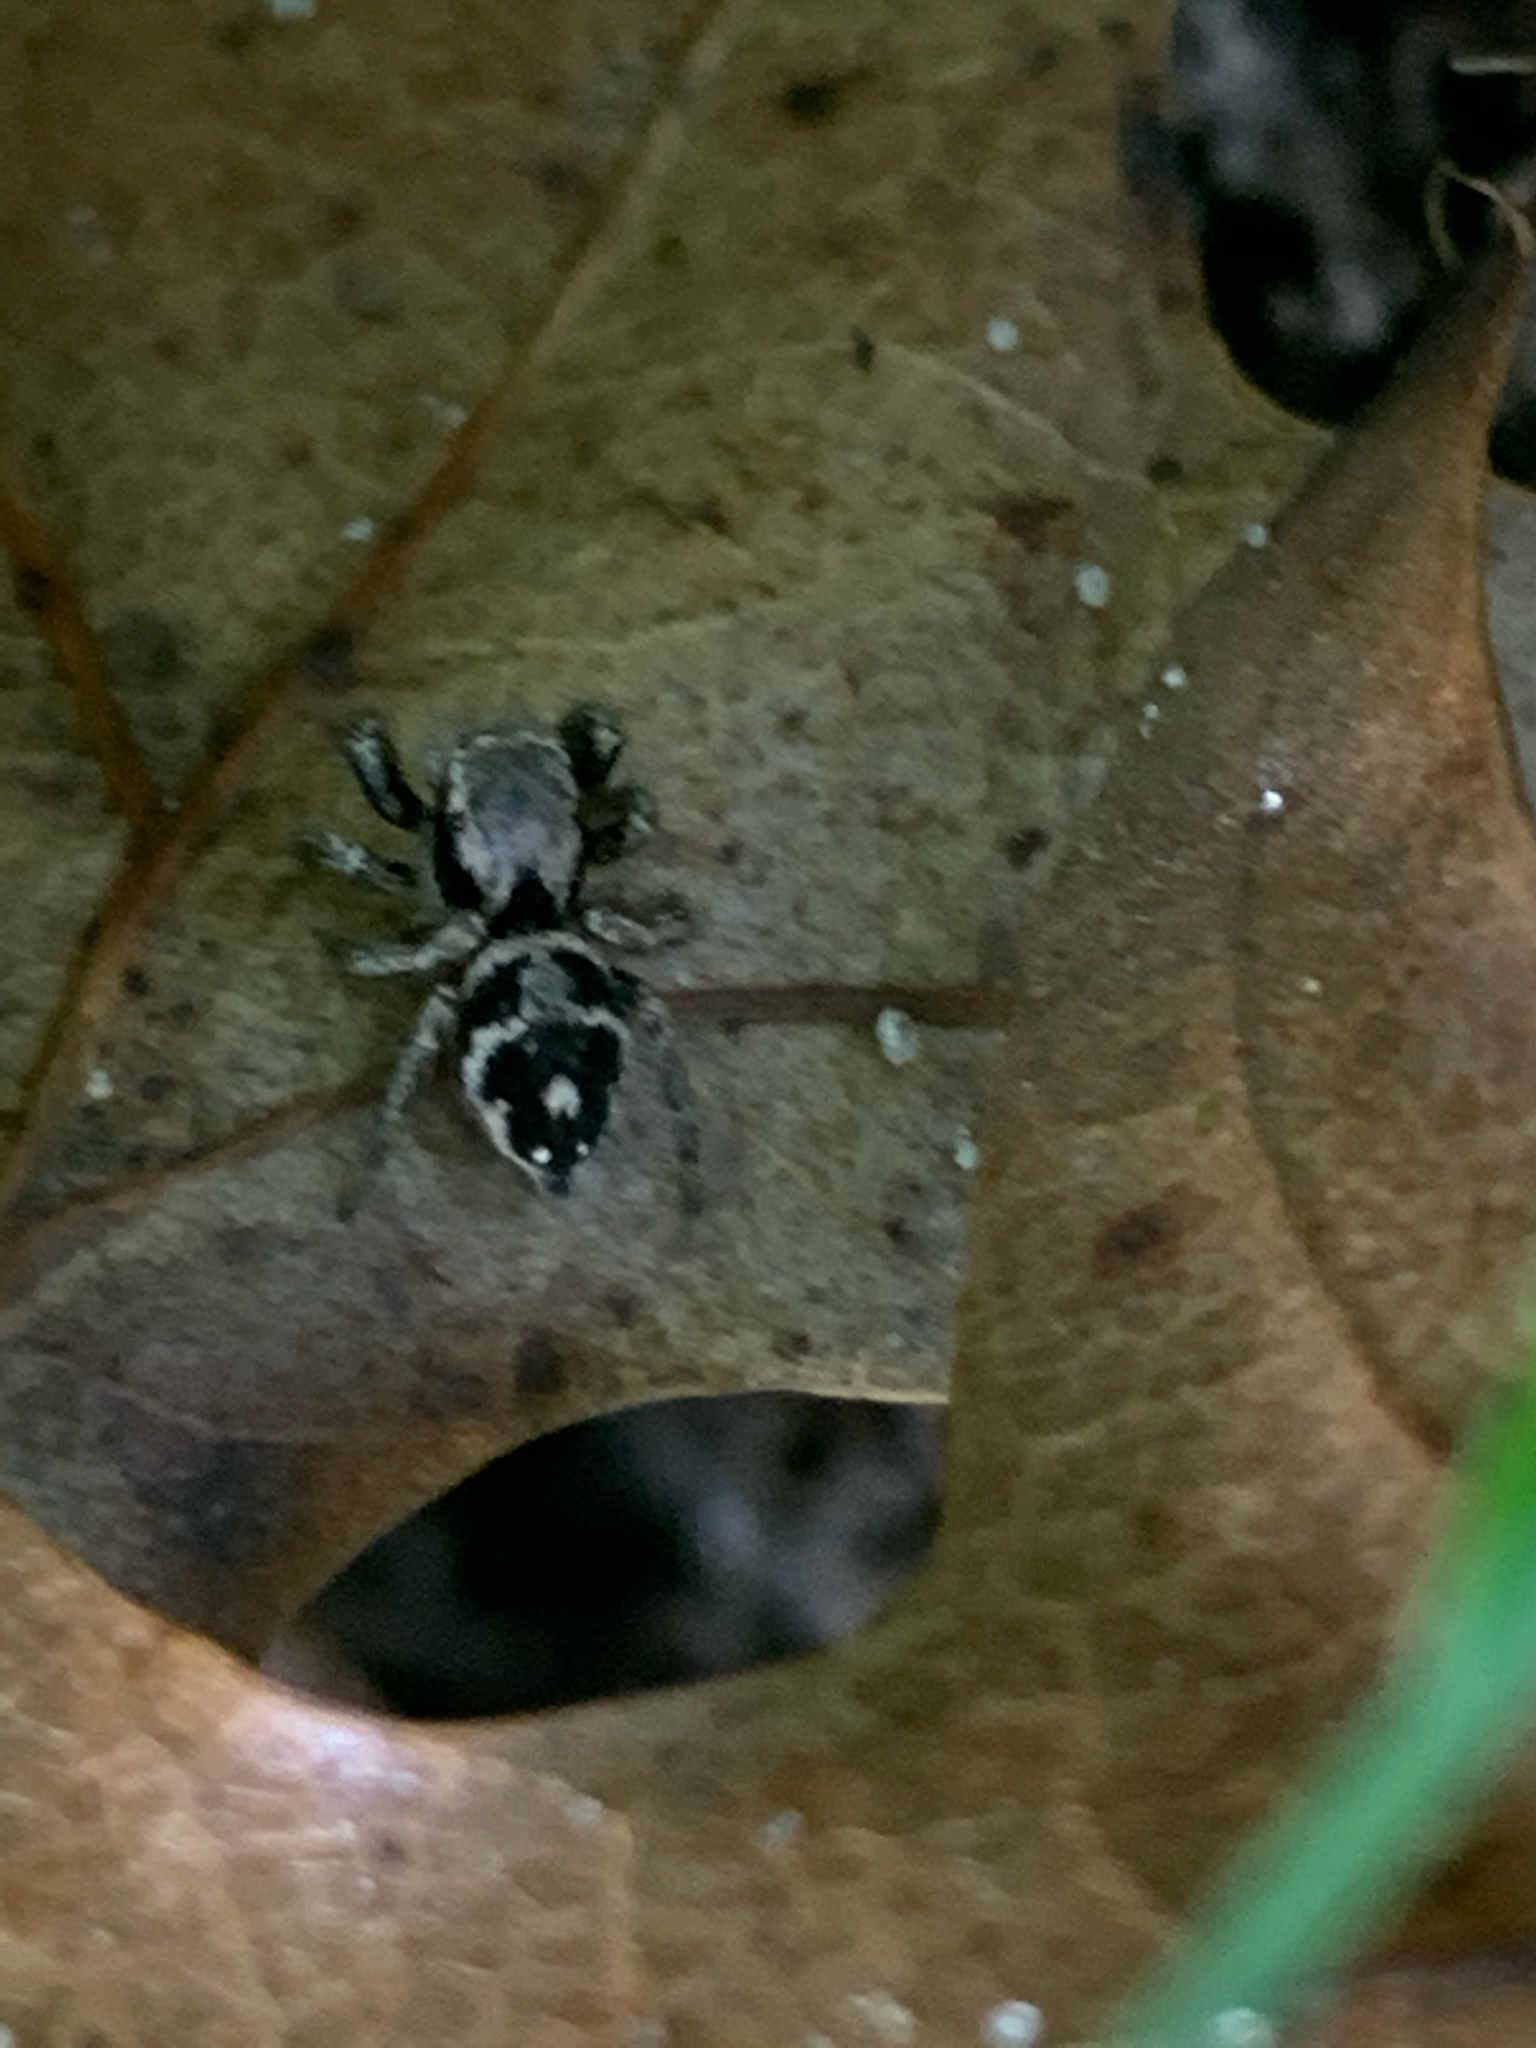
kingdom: Animalia
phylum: Arthropoda
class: Arachnida
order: Araneae
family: Salticidae
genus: Habronattus
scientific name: Habronattus coecatus
